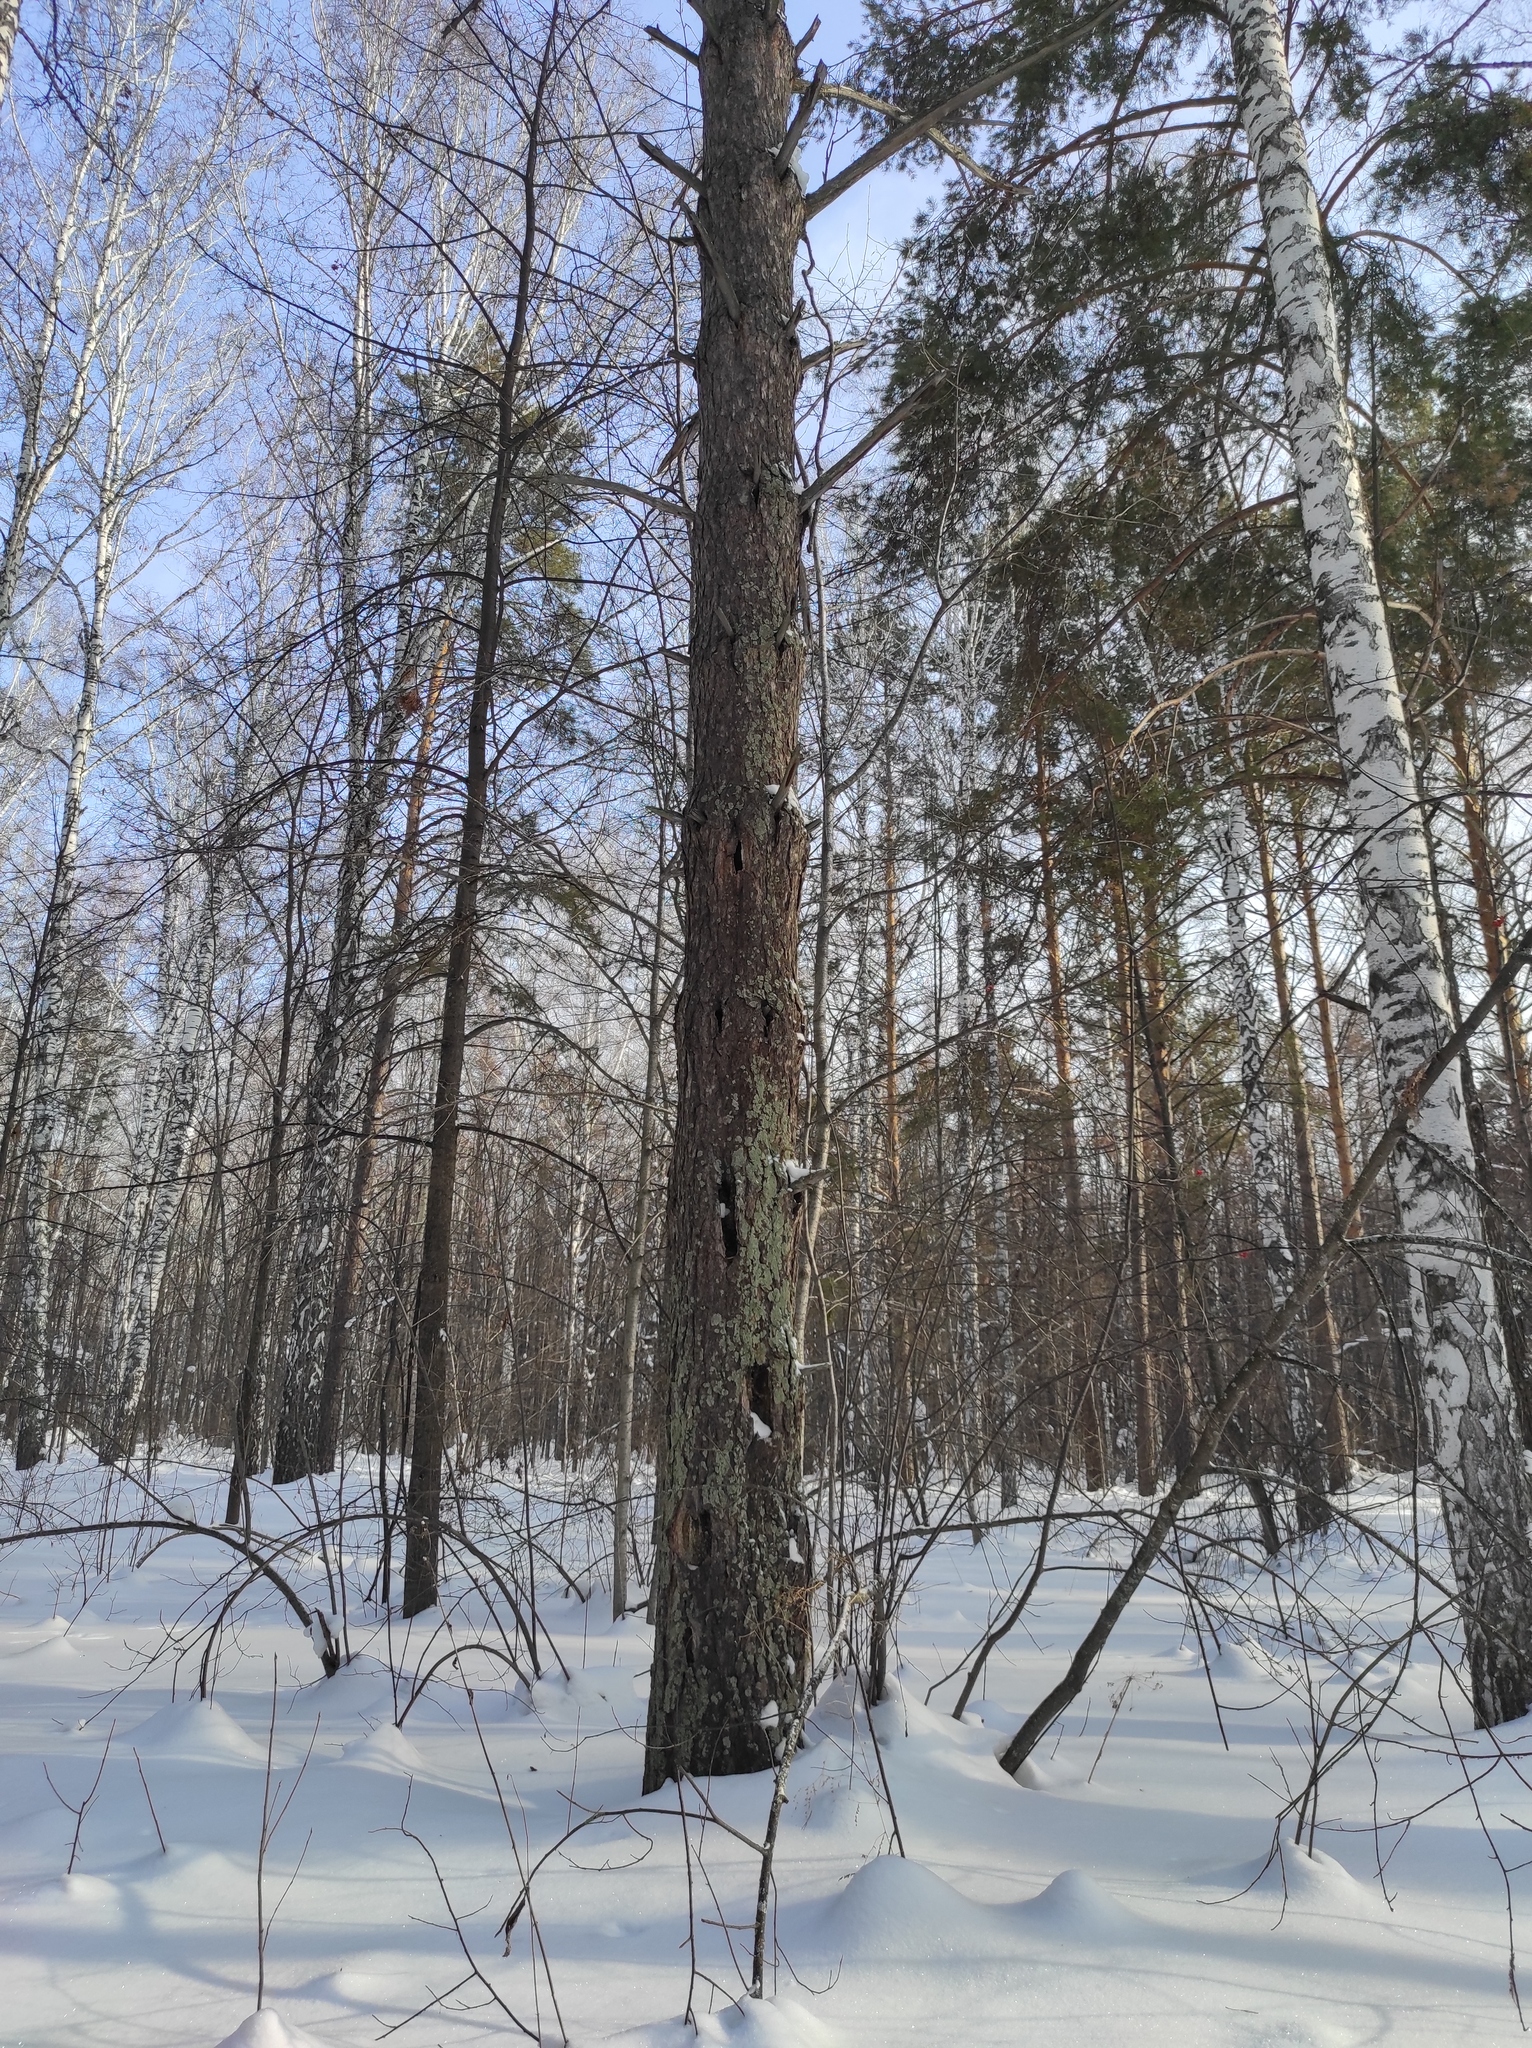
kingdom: Plantae
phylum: Tracheophyta
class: Pinopsida
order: Pinales
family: Pinaceae
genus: Pinus
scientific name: Pinus sylvestris
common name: Scots pine
